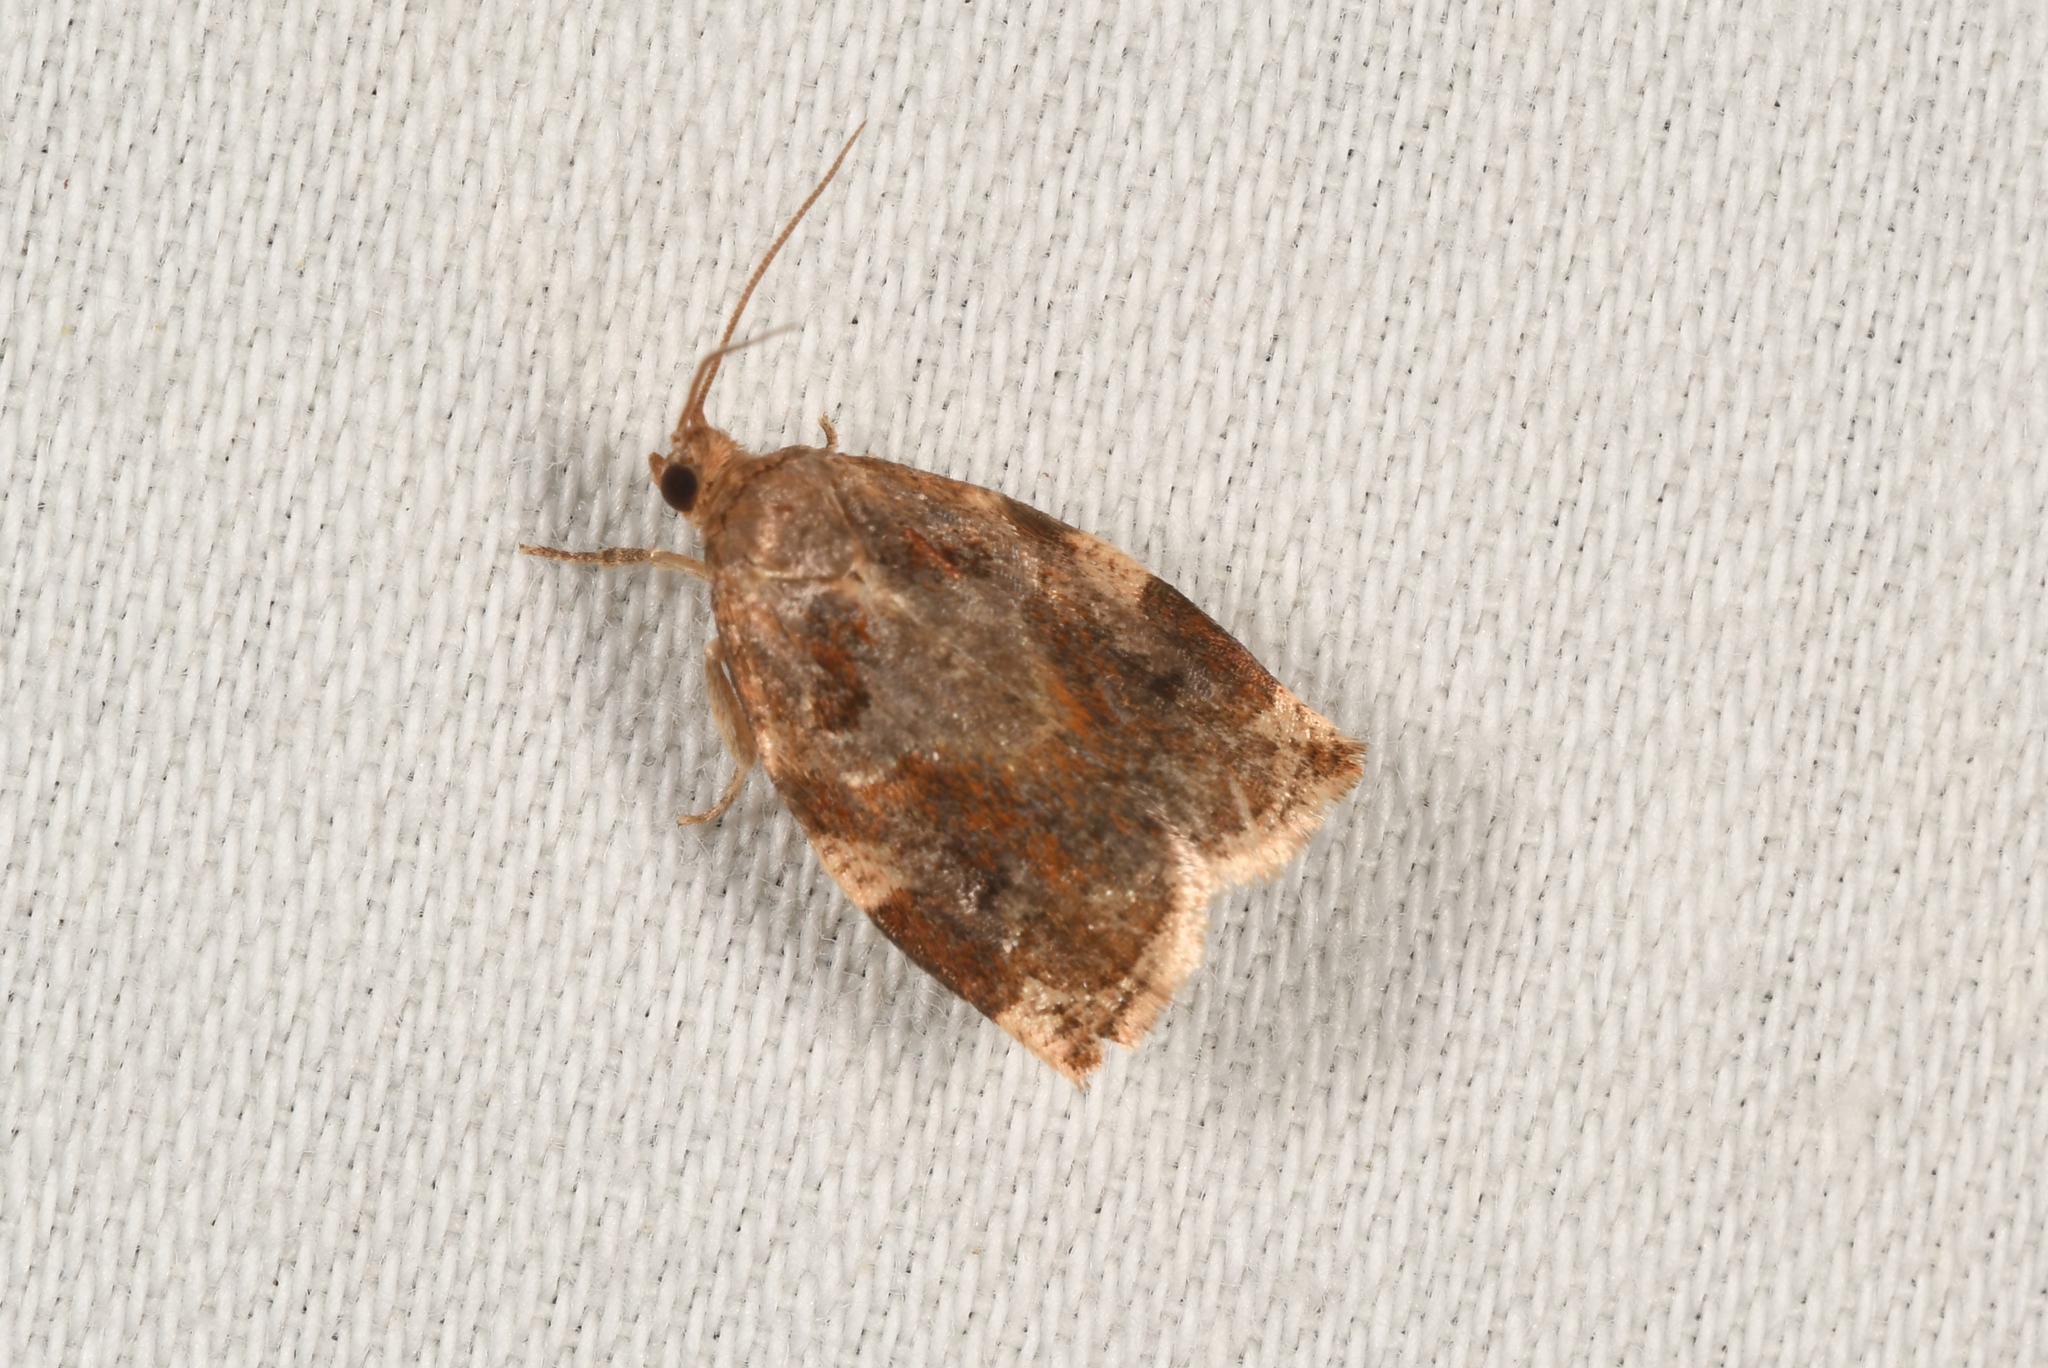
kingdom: Animalia
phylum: Arthropoda
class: Insecta
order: Lepidoptera
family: Tortricidae
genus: Archips
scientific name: Archips xylosteana
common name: Variegated golden tortrix
